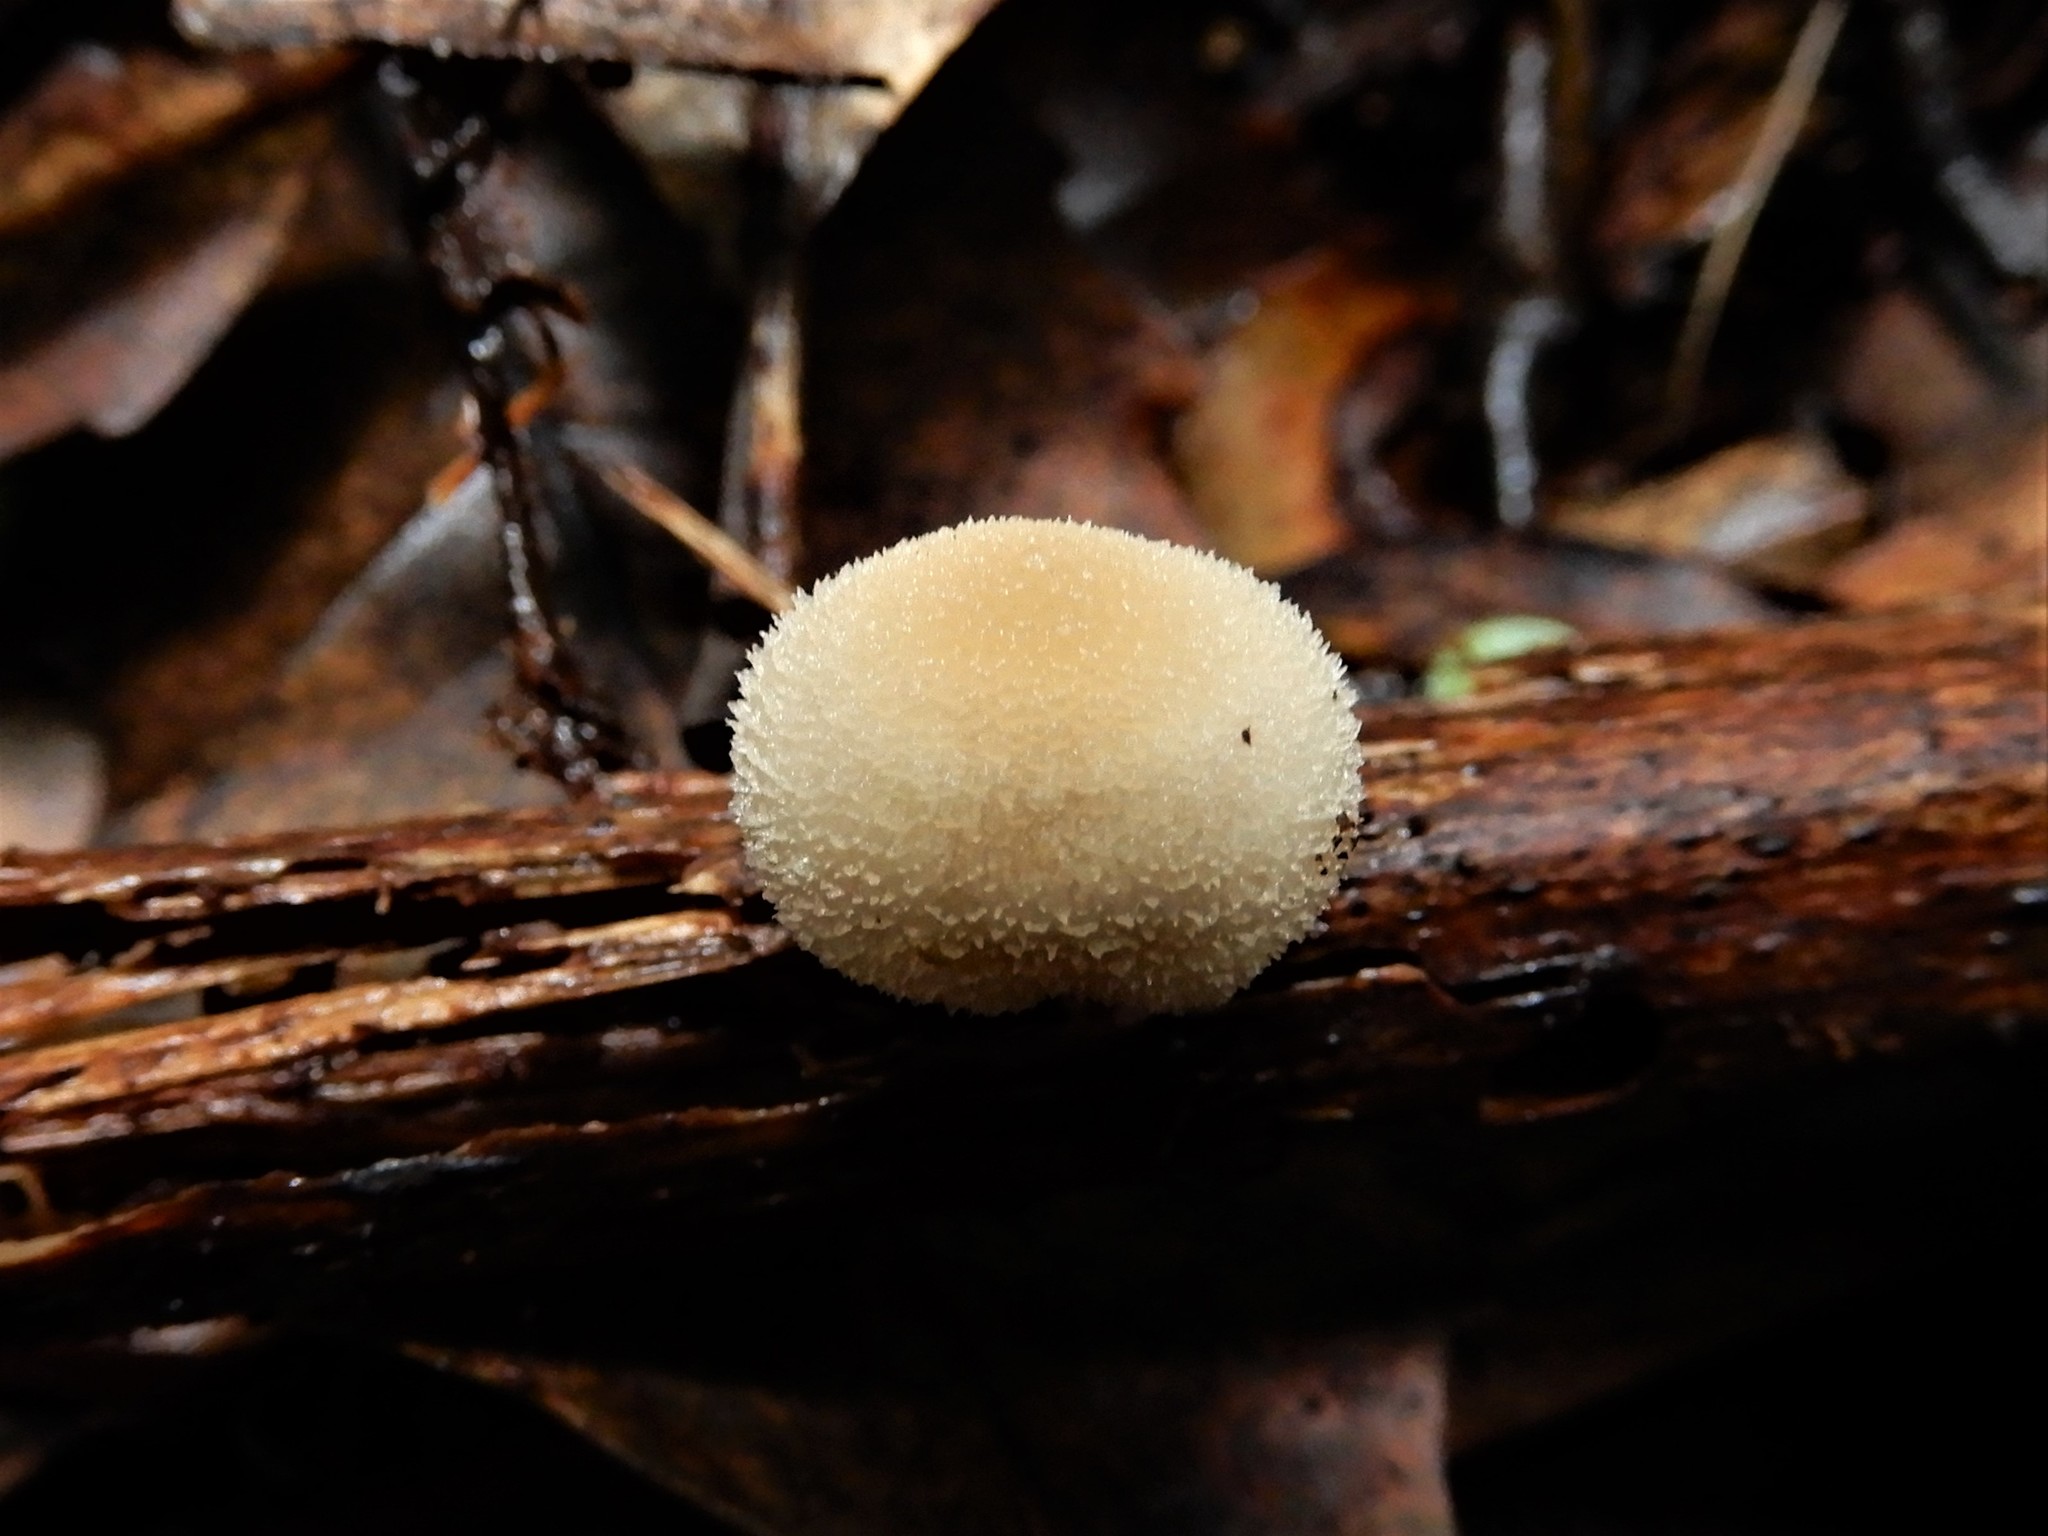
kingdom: Fungi
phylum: Basidiomycota
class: Agaricomycetes
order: Agaricales
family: Bolbitiaceae
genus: Tympanella
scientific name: Tympanella galanthina
